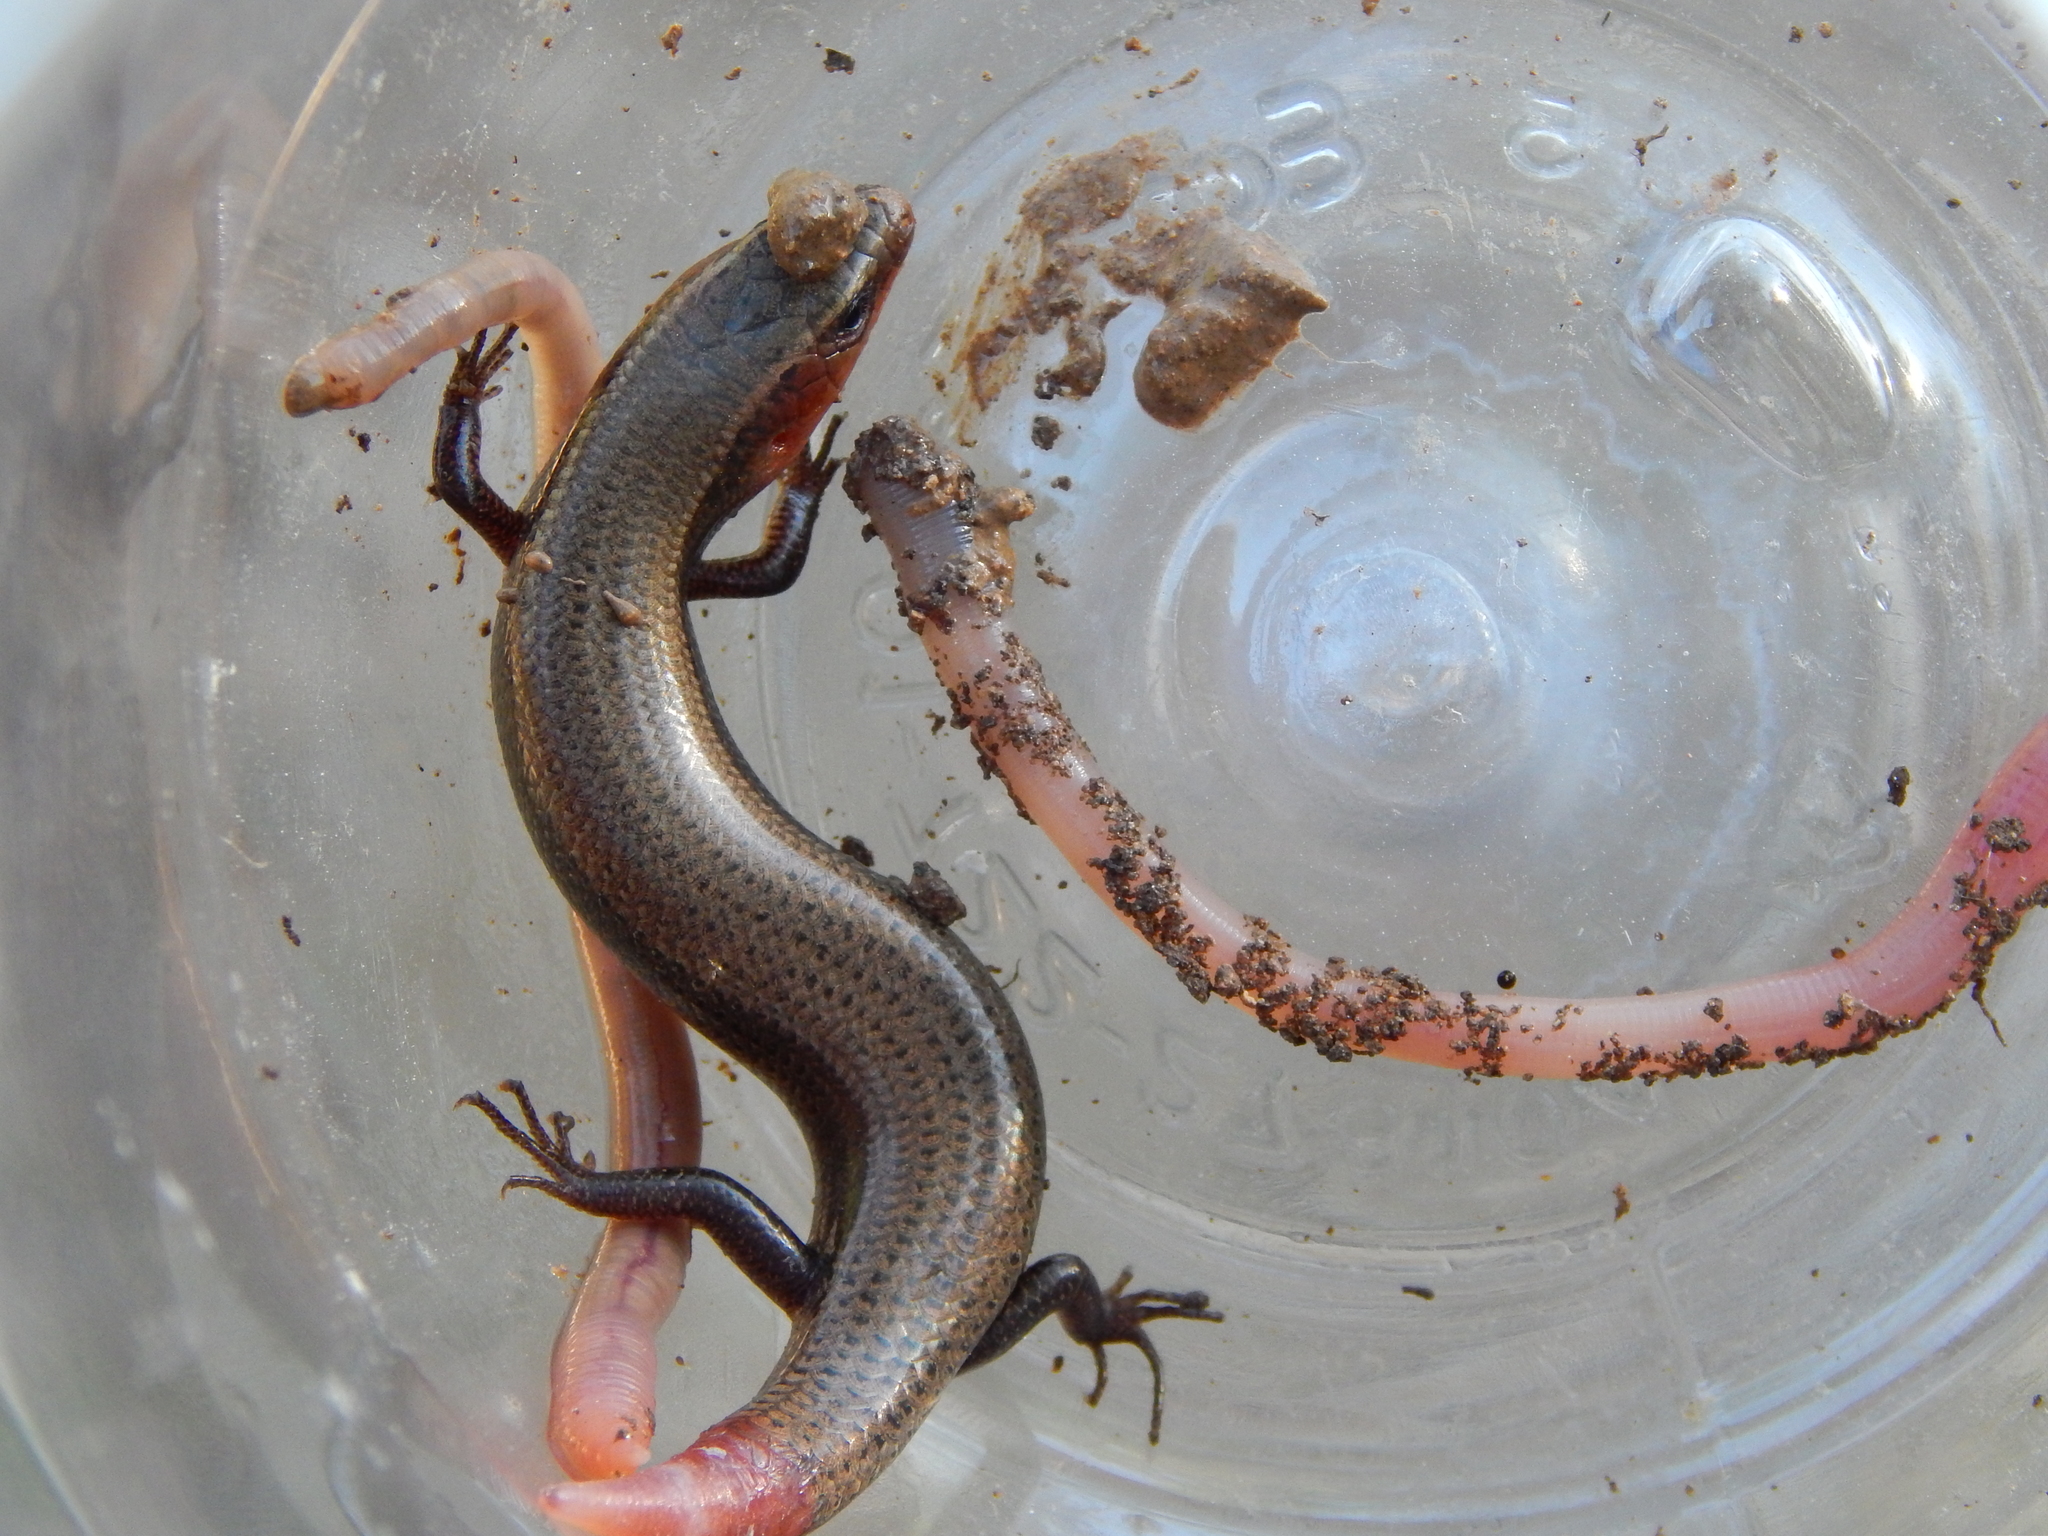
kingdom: Animalia
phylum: Chordata
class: Squamata
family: Scincidae
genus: Plestiodon
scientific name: Plestiodon dicei
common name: Dice's short-nosed skink
